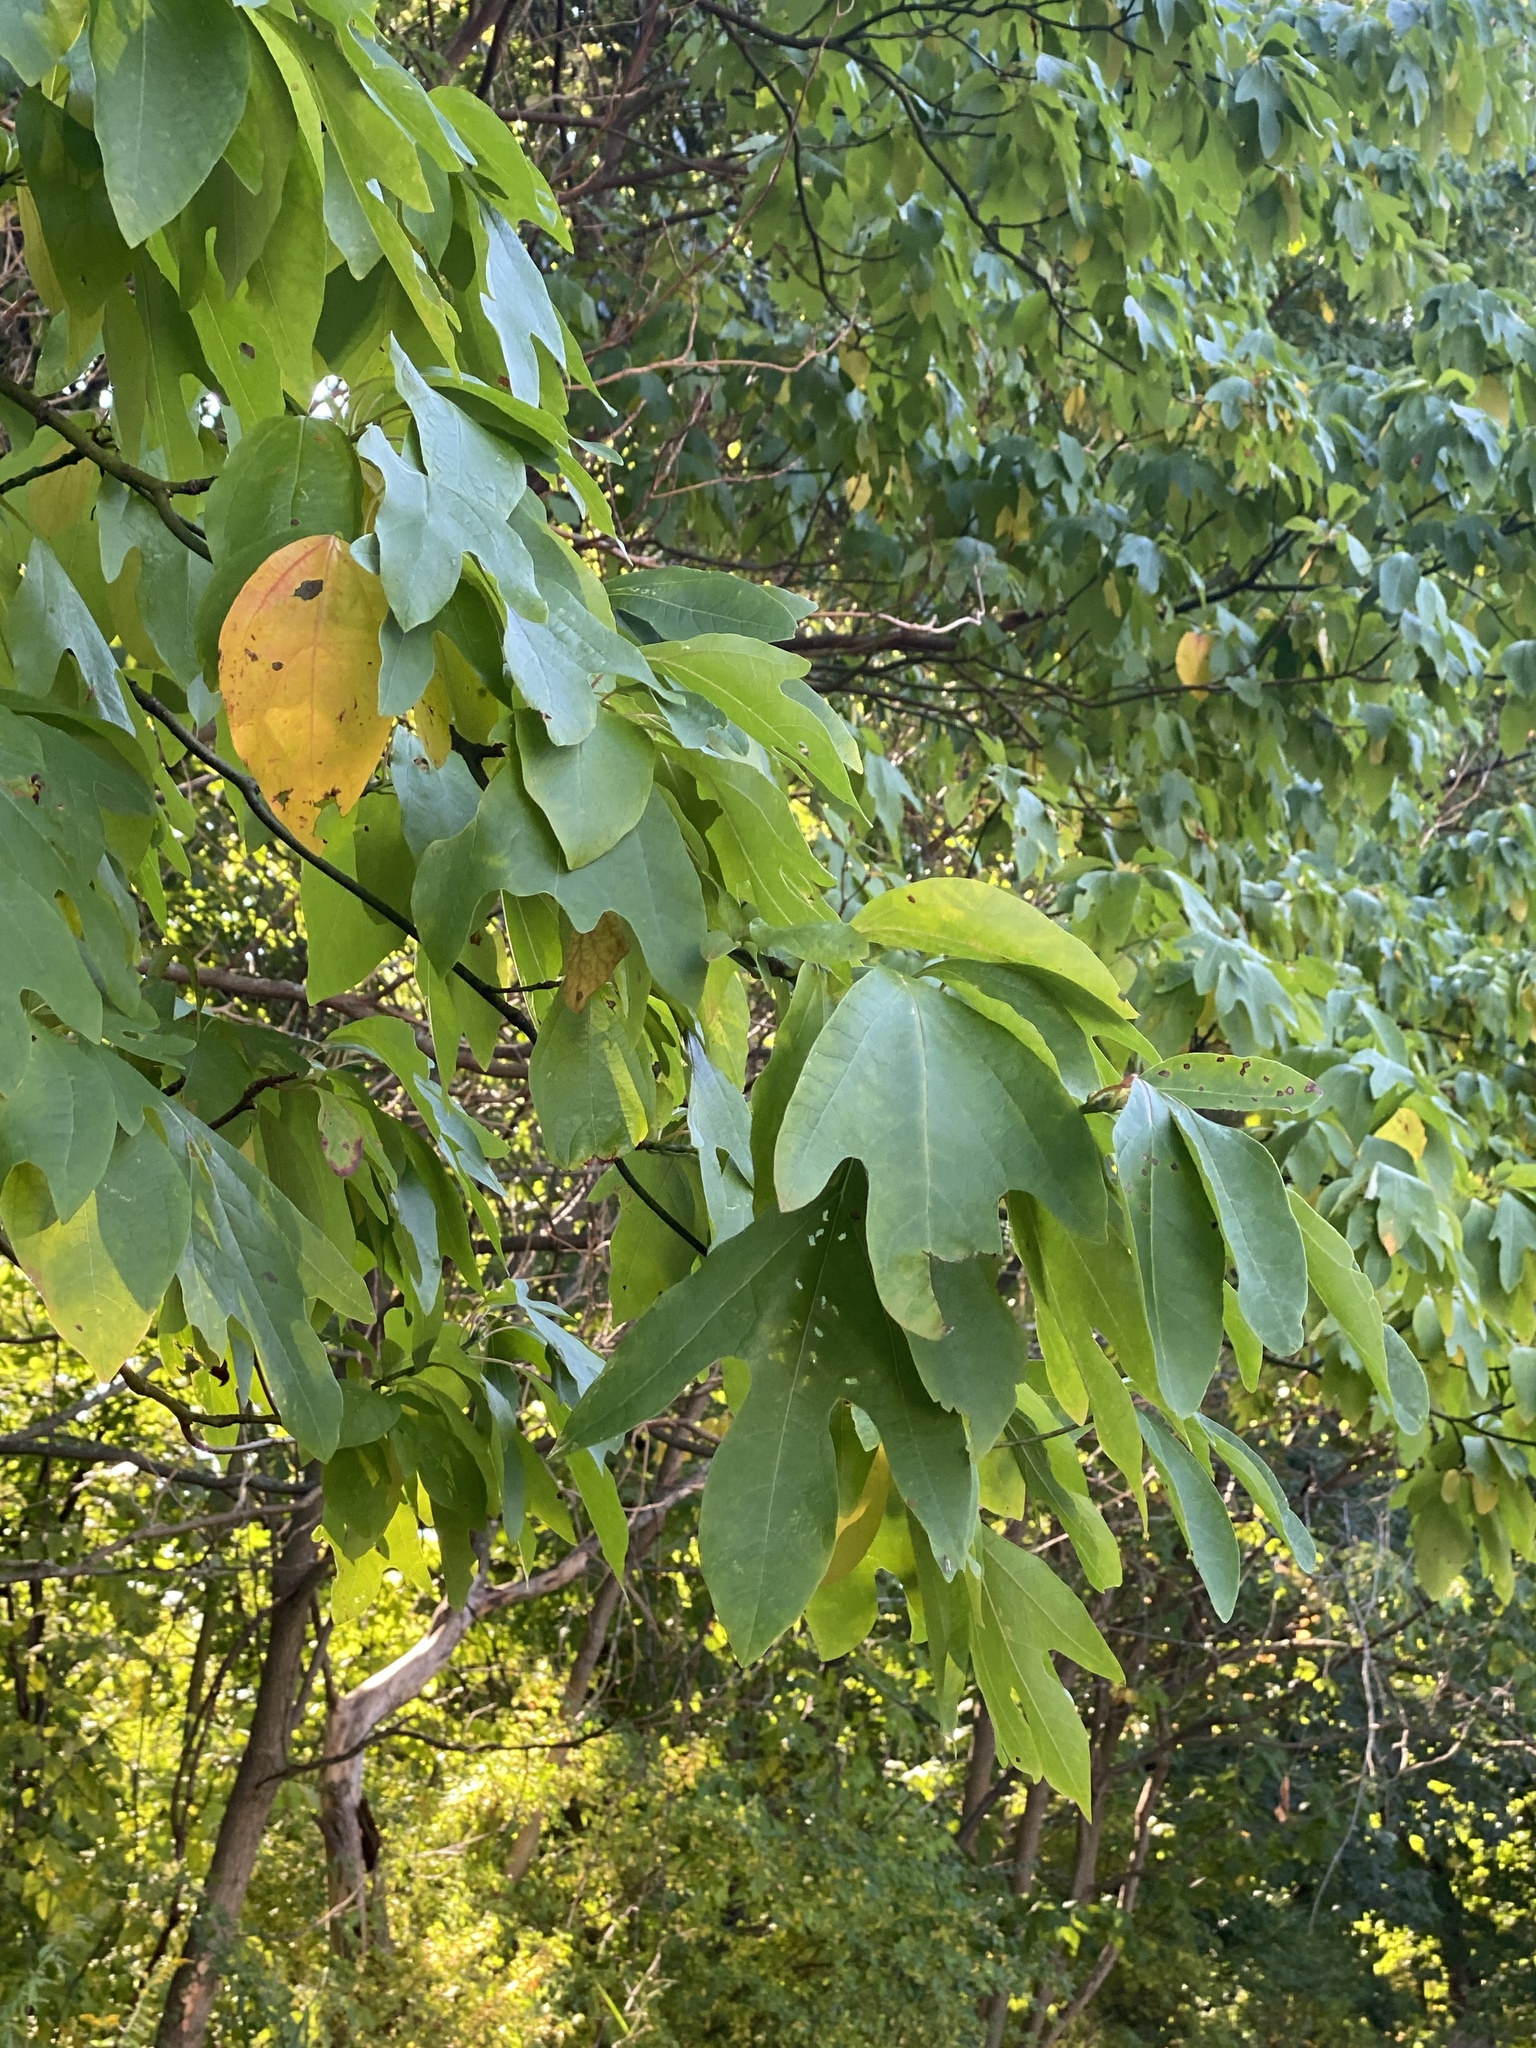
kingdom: Plantae
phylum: Tracheophyta
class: Magnoliopsida
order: Laurales
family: Lauraceae
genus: Sassafras
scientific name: Sassafras albidum
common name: Sassafras
